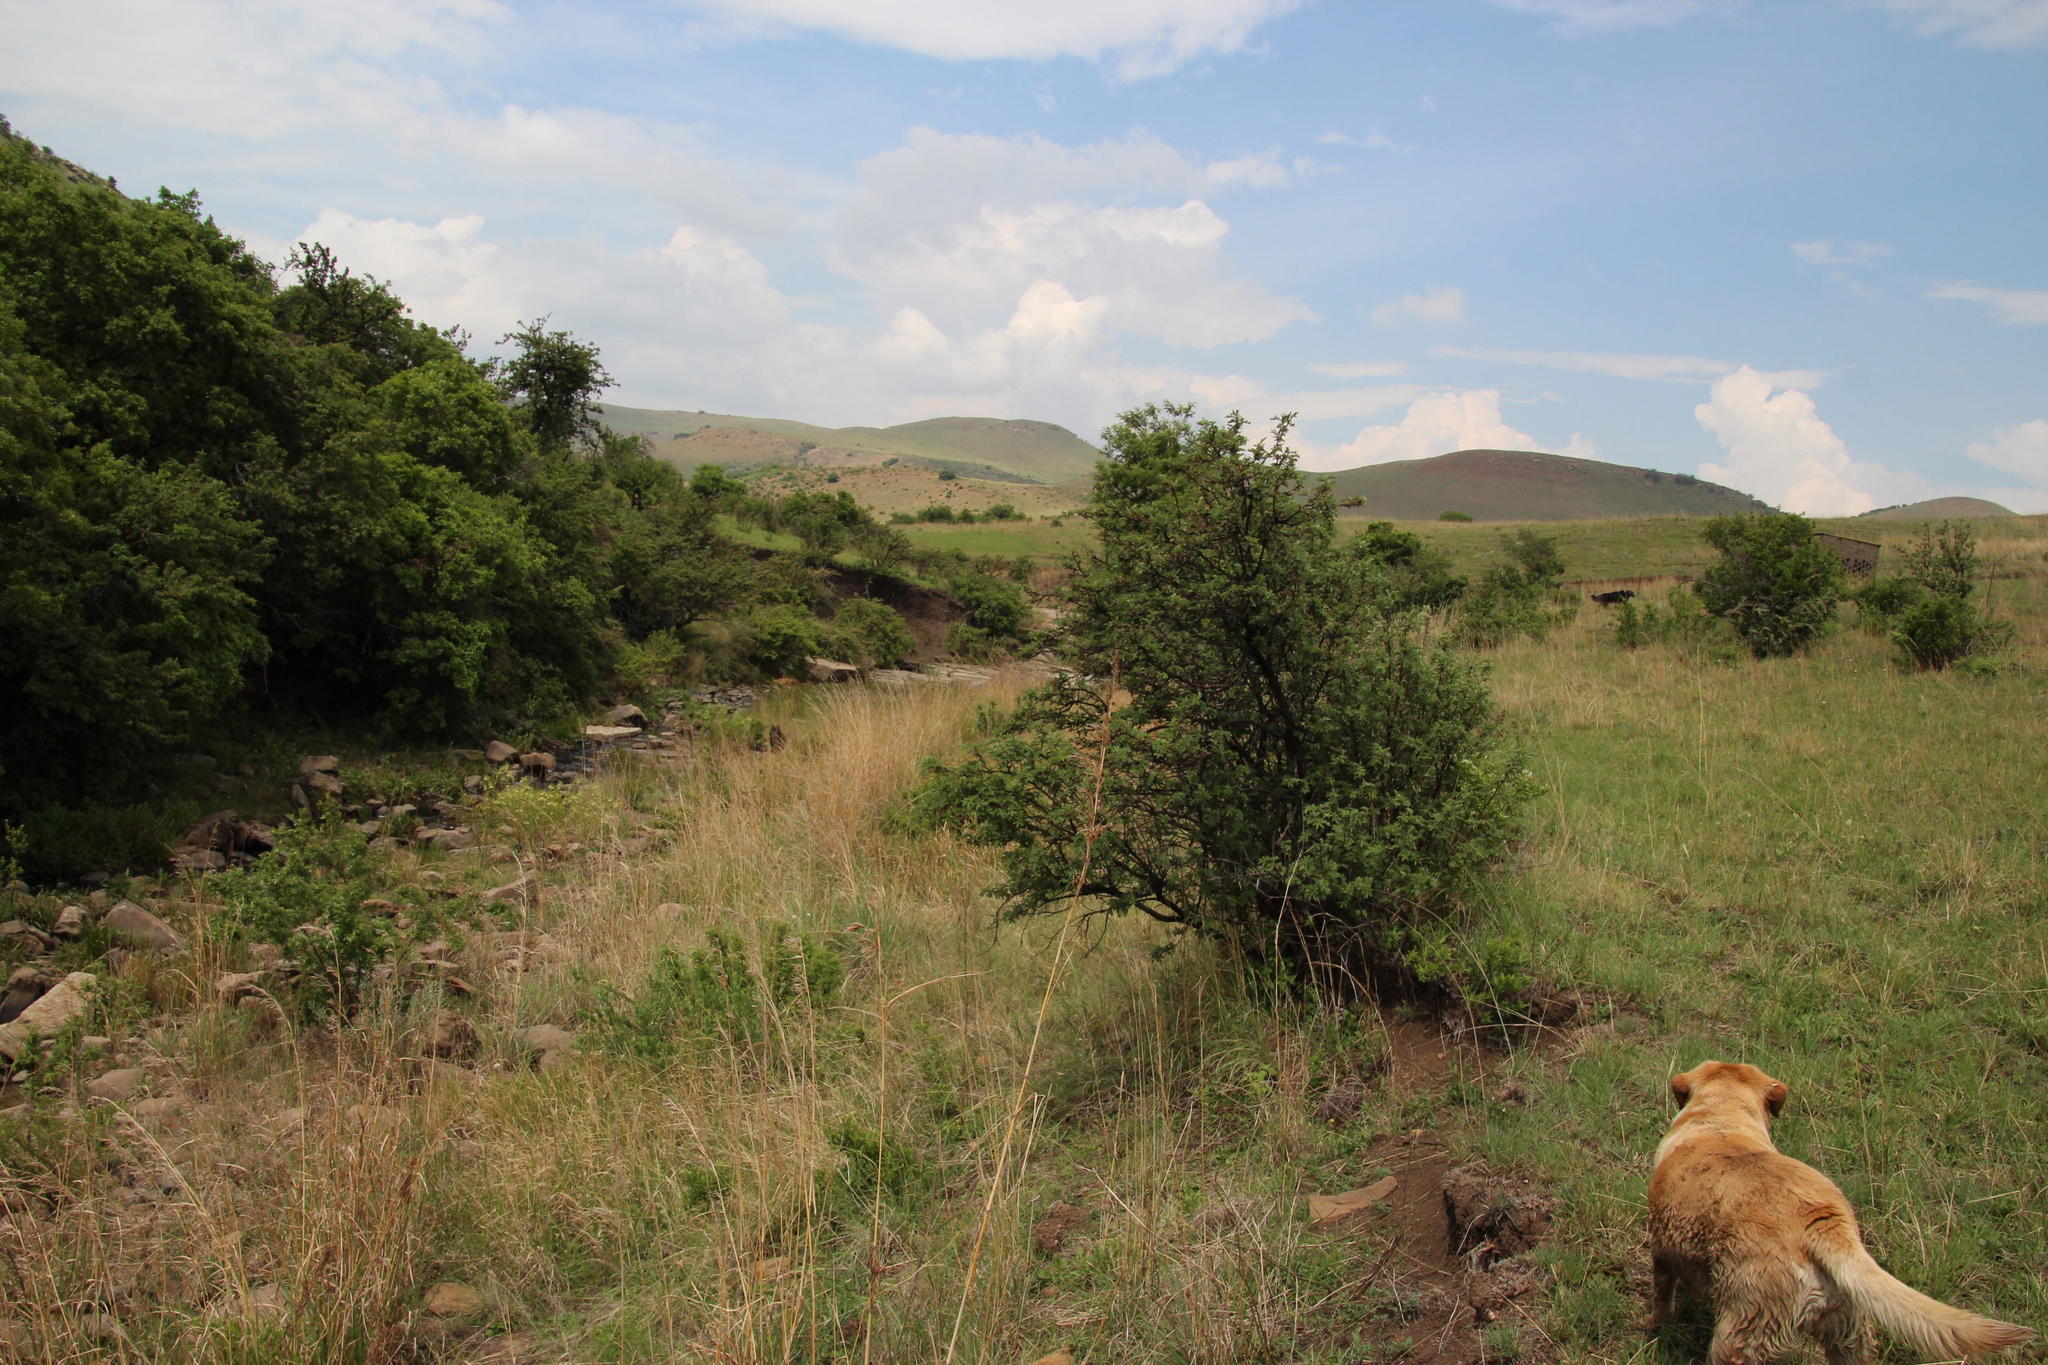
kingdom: Plantae
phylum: Tracheophyta
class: Magnoliopsida
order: Rosales
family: Rosaceae
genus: Leucosidea
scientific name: Leucosidea sericea
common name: Oldwood
